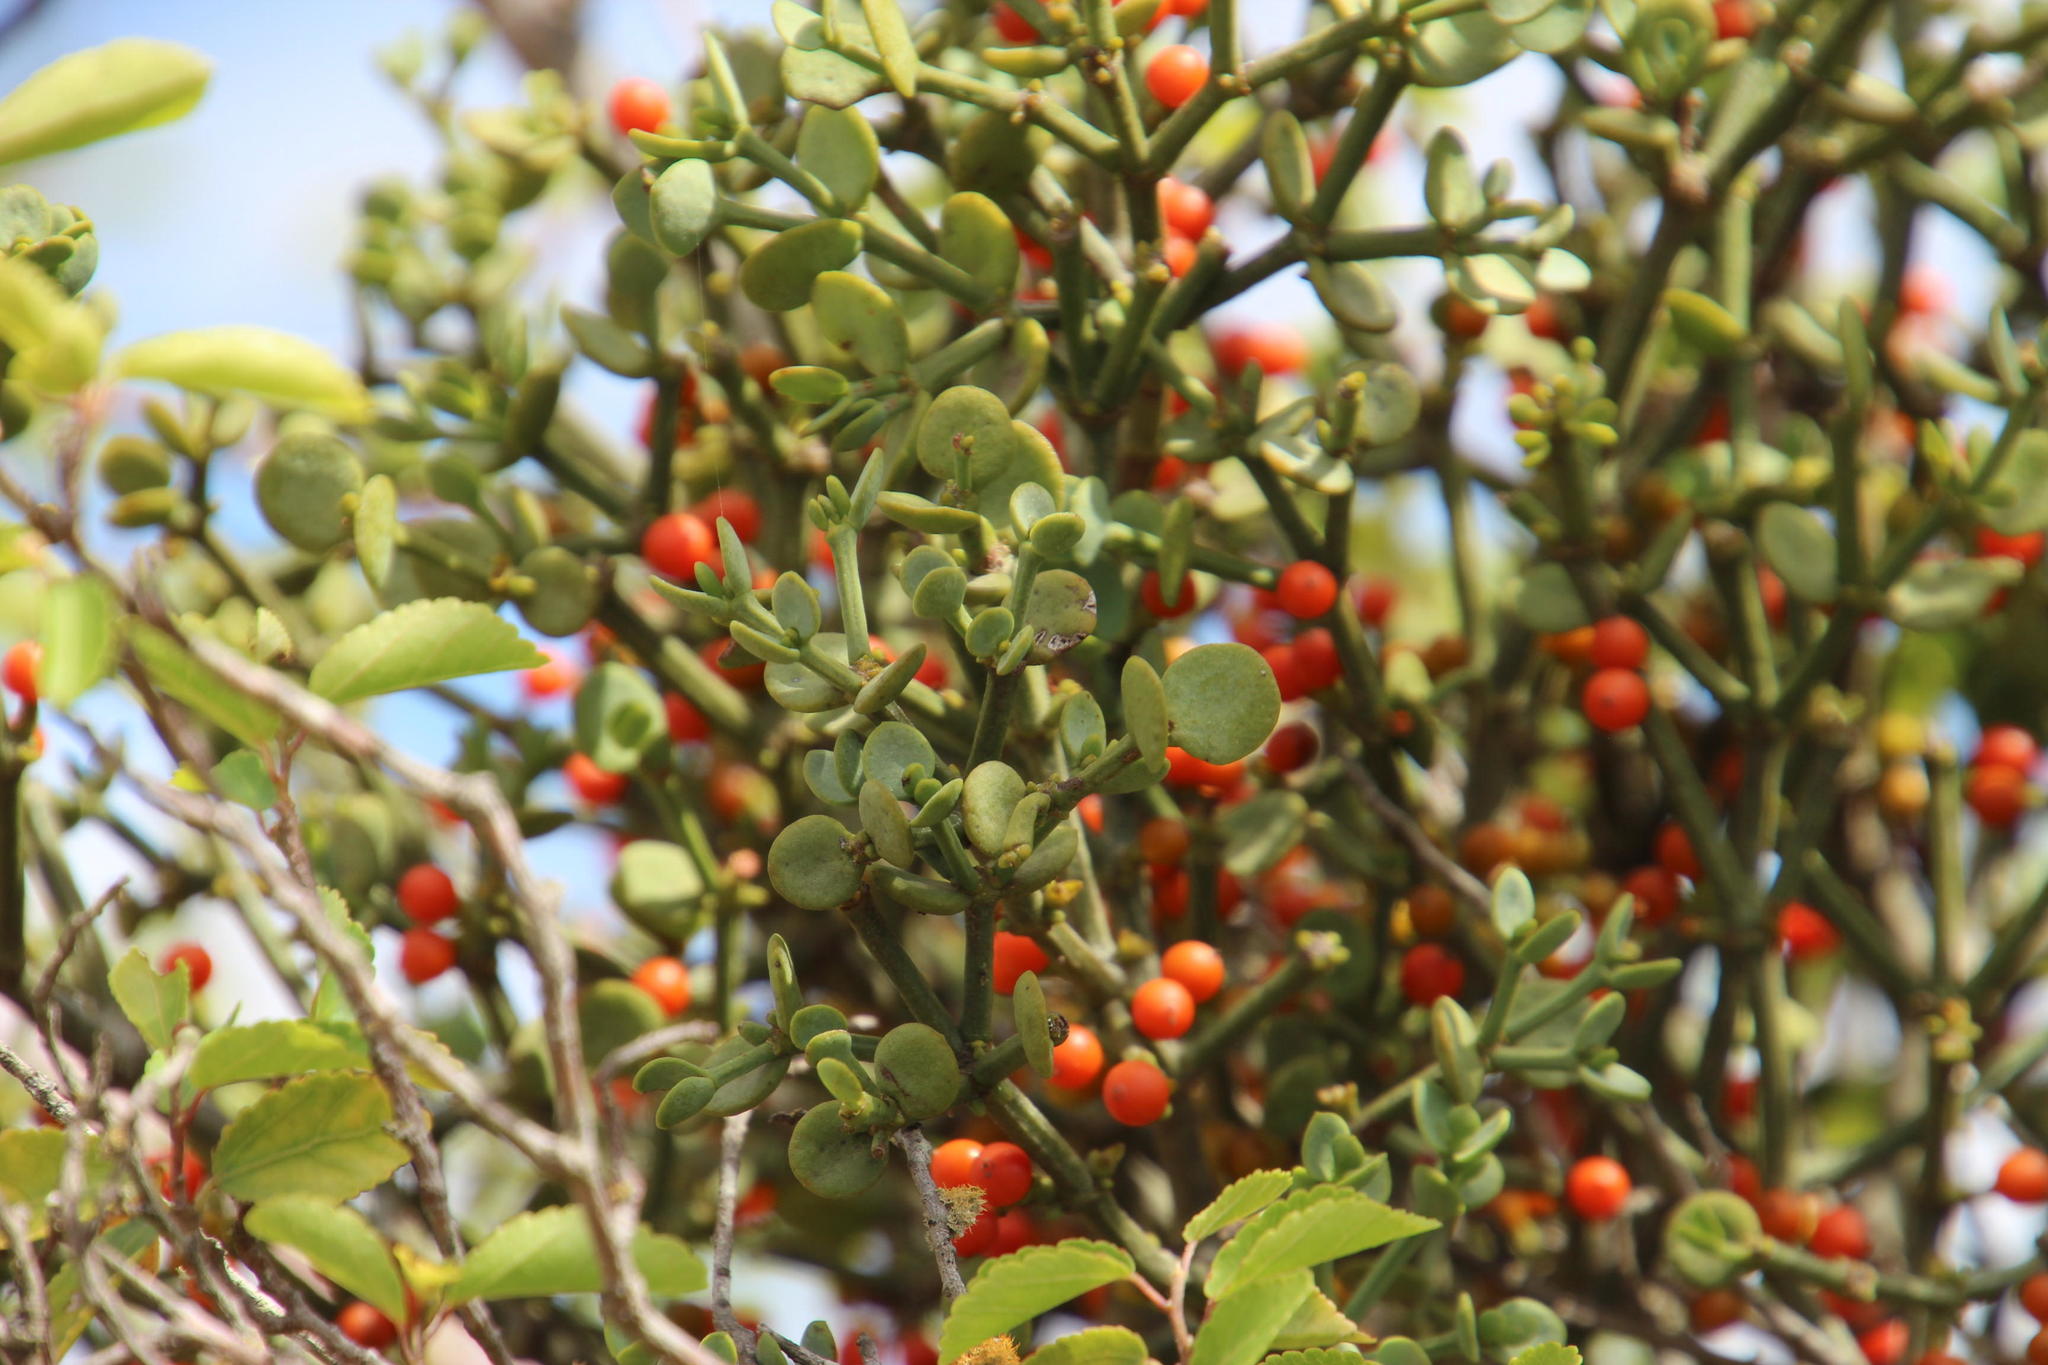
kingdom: Plantae
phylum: Tracheophyta
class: Magnoliopsida
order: Santalales
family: Viscaceae
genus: Viscum
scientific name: Viscum rotundifolium
